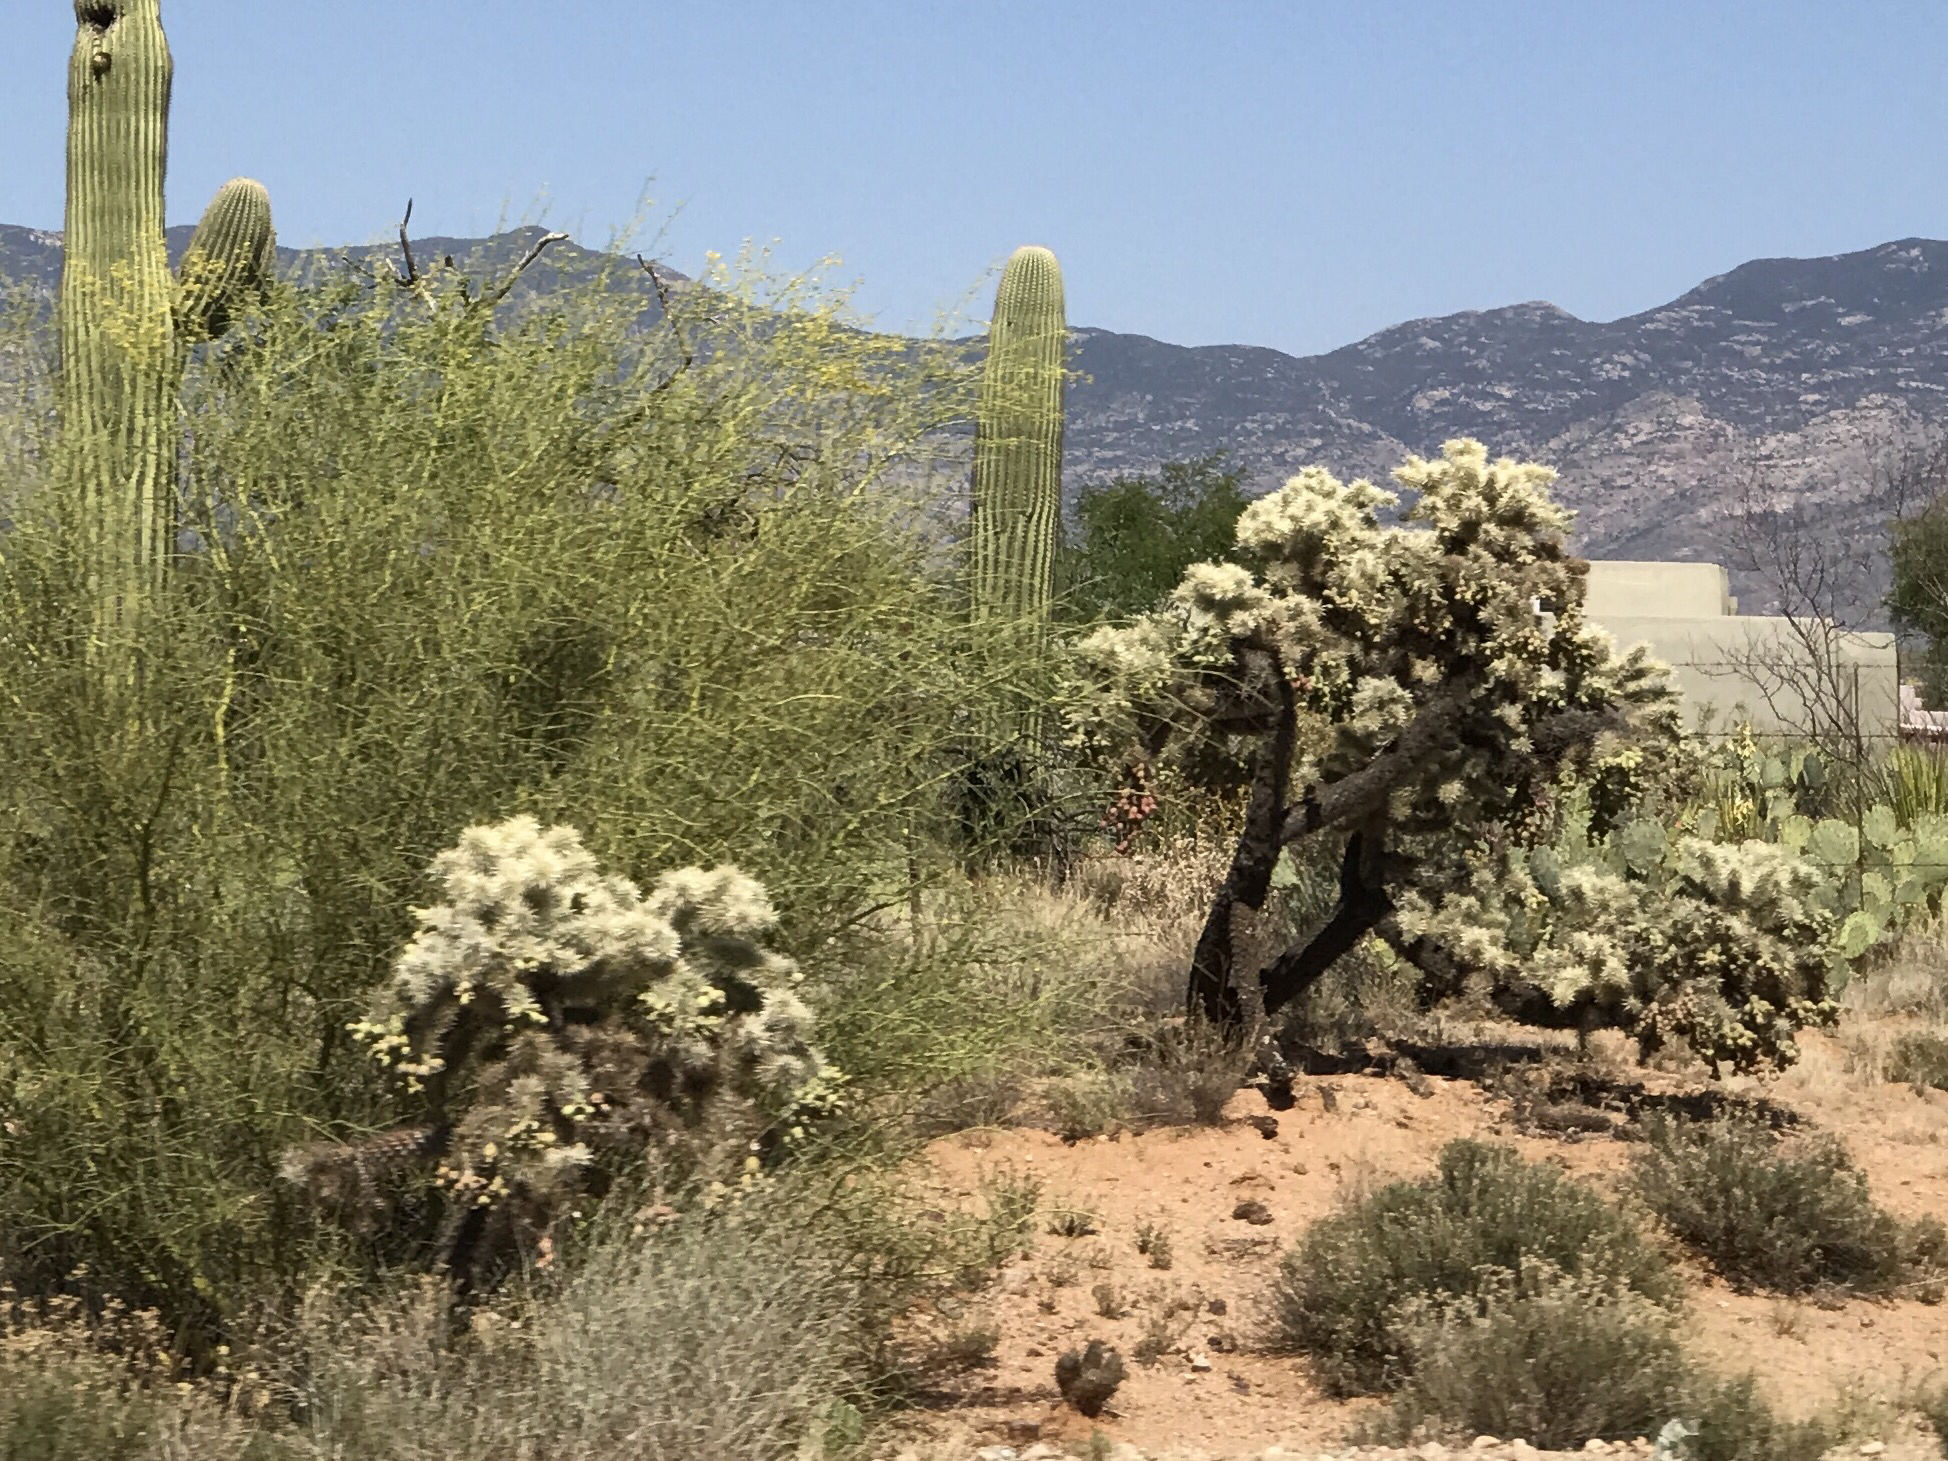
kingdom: Plantae
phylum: Tracheophyta
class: Magnoliopsida
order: Caryophyllales
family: Cactaceae
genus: Cylindropuntia
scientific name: Cylindropuntia fulgida
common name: Jumping cholla
